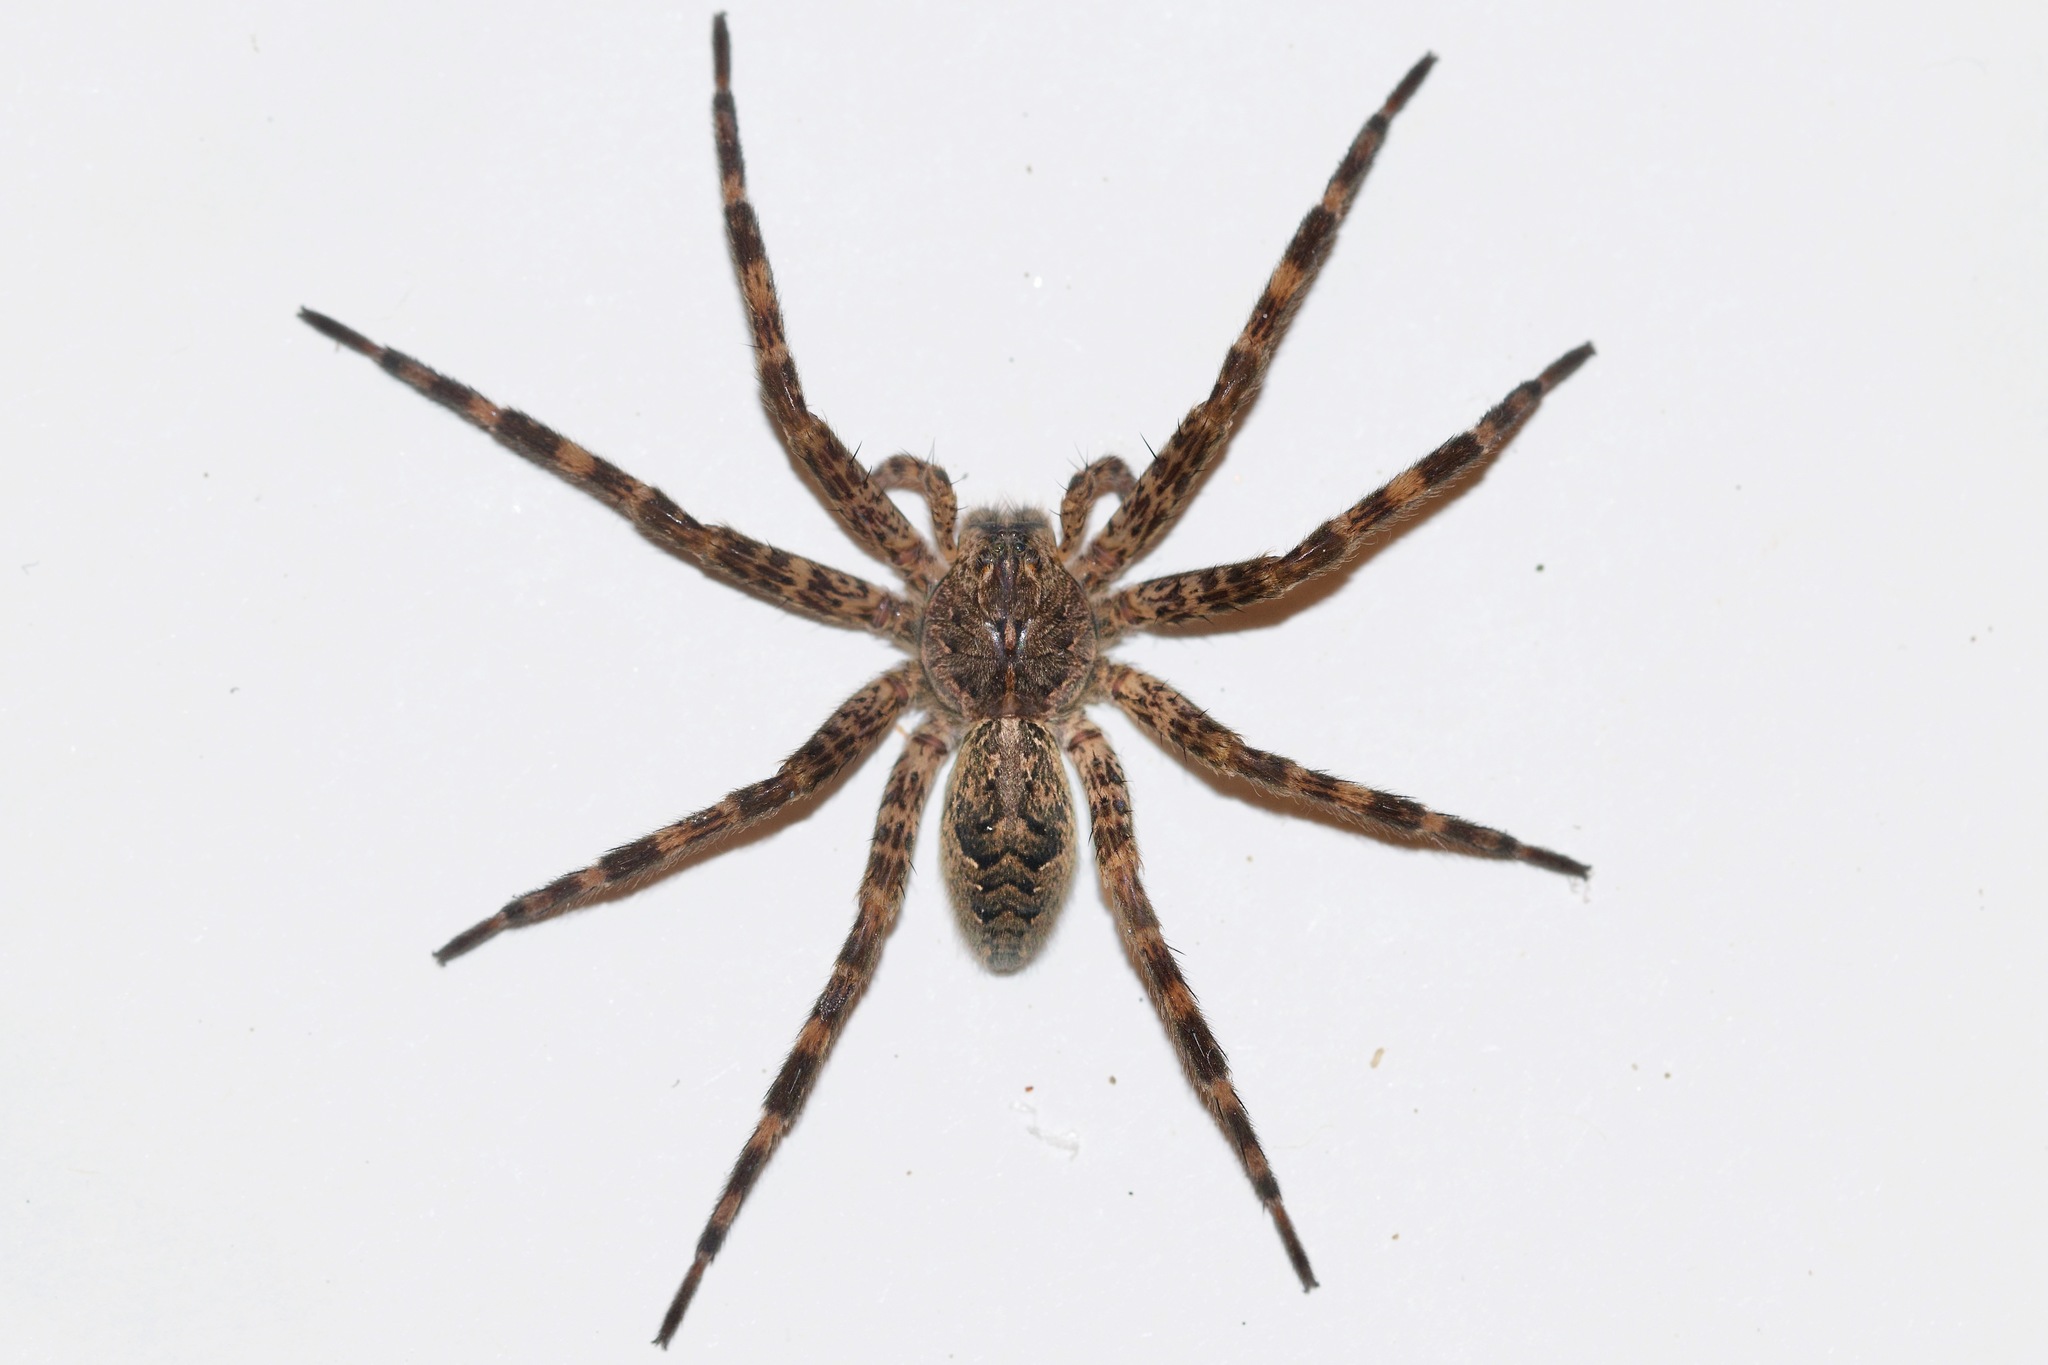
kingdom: Animalia
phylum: Arthropoda
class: Arachnida
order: Araneae
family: Pisauridae
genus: Dolomedes
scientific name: Dolomedes tenebrosus
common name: Dark fishing spider
